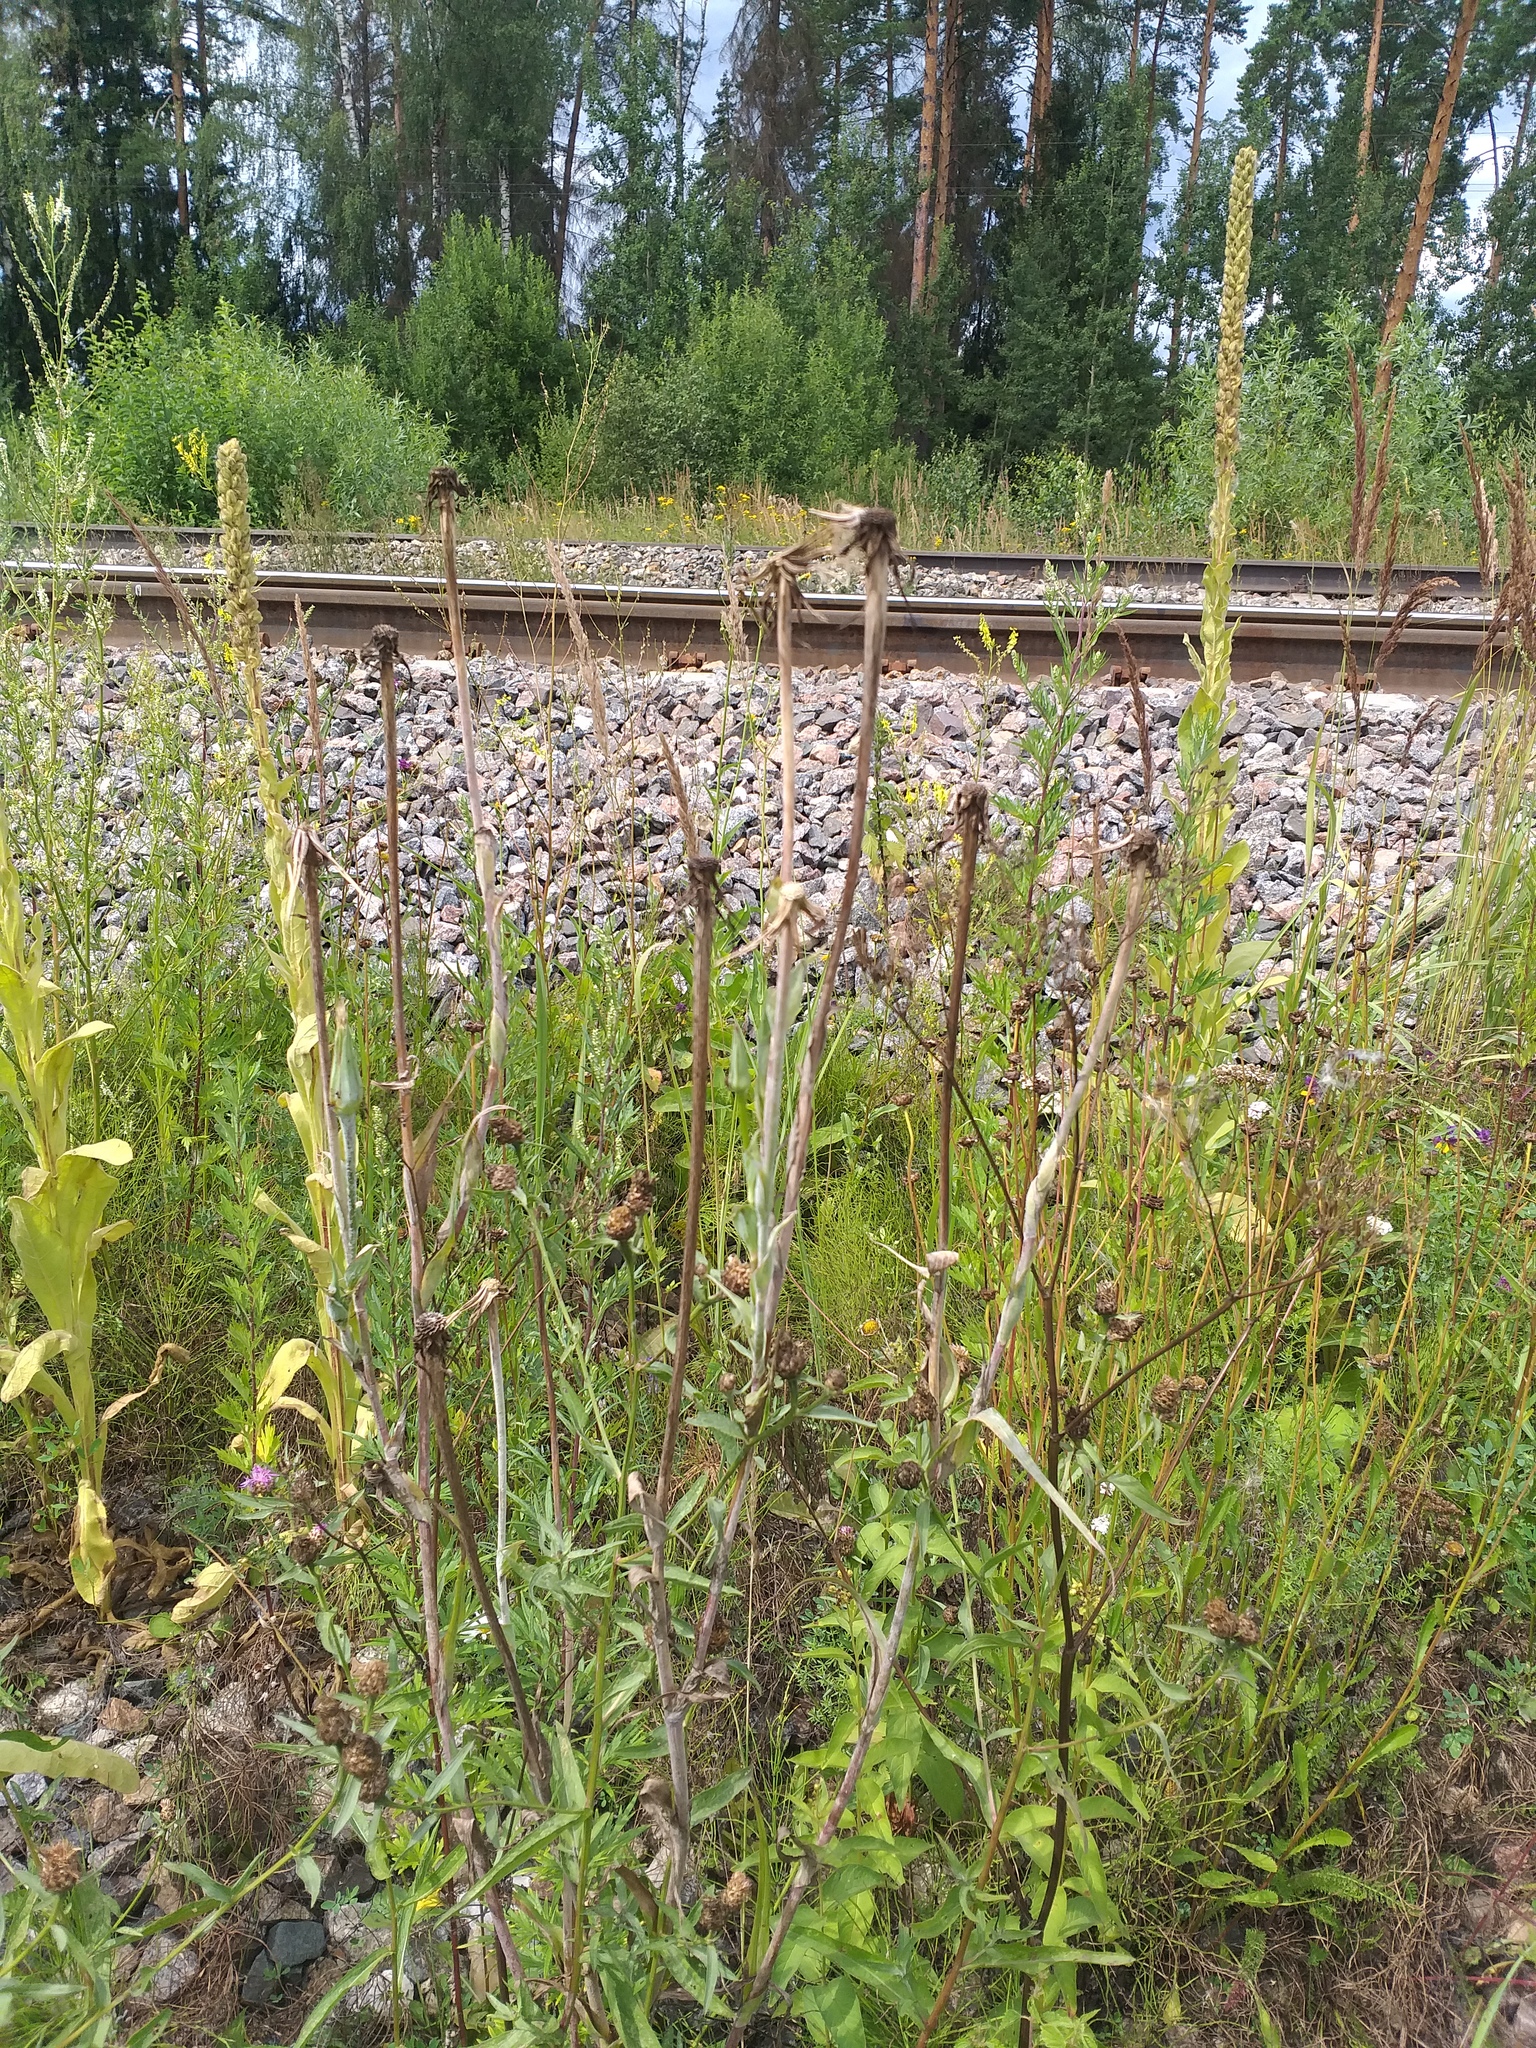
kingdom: Plantae
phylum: Tracheophyta
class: Magnoliopsida
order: Asterales
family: Asteraceae
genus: Tragopogon
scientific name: Tragopogon dubius
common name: Yellow salsify
